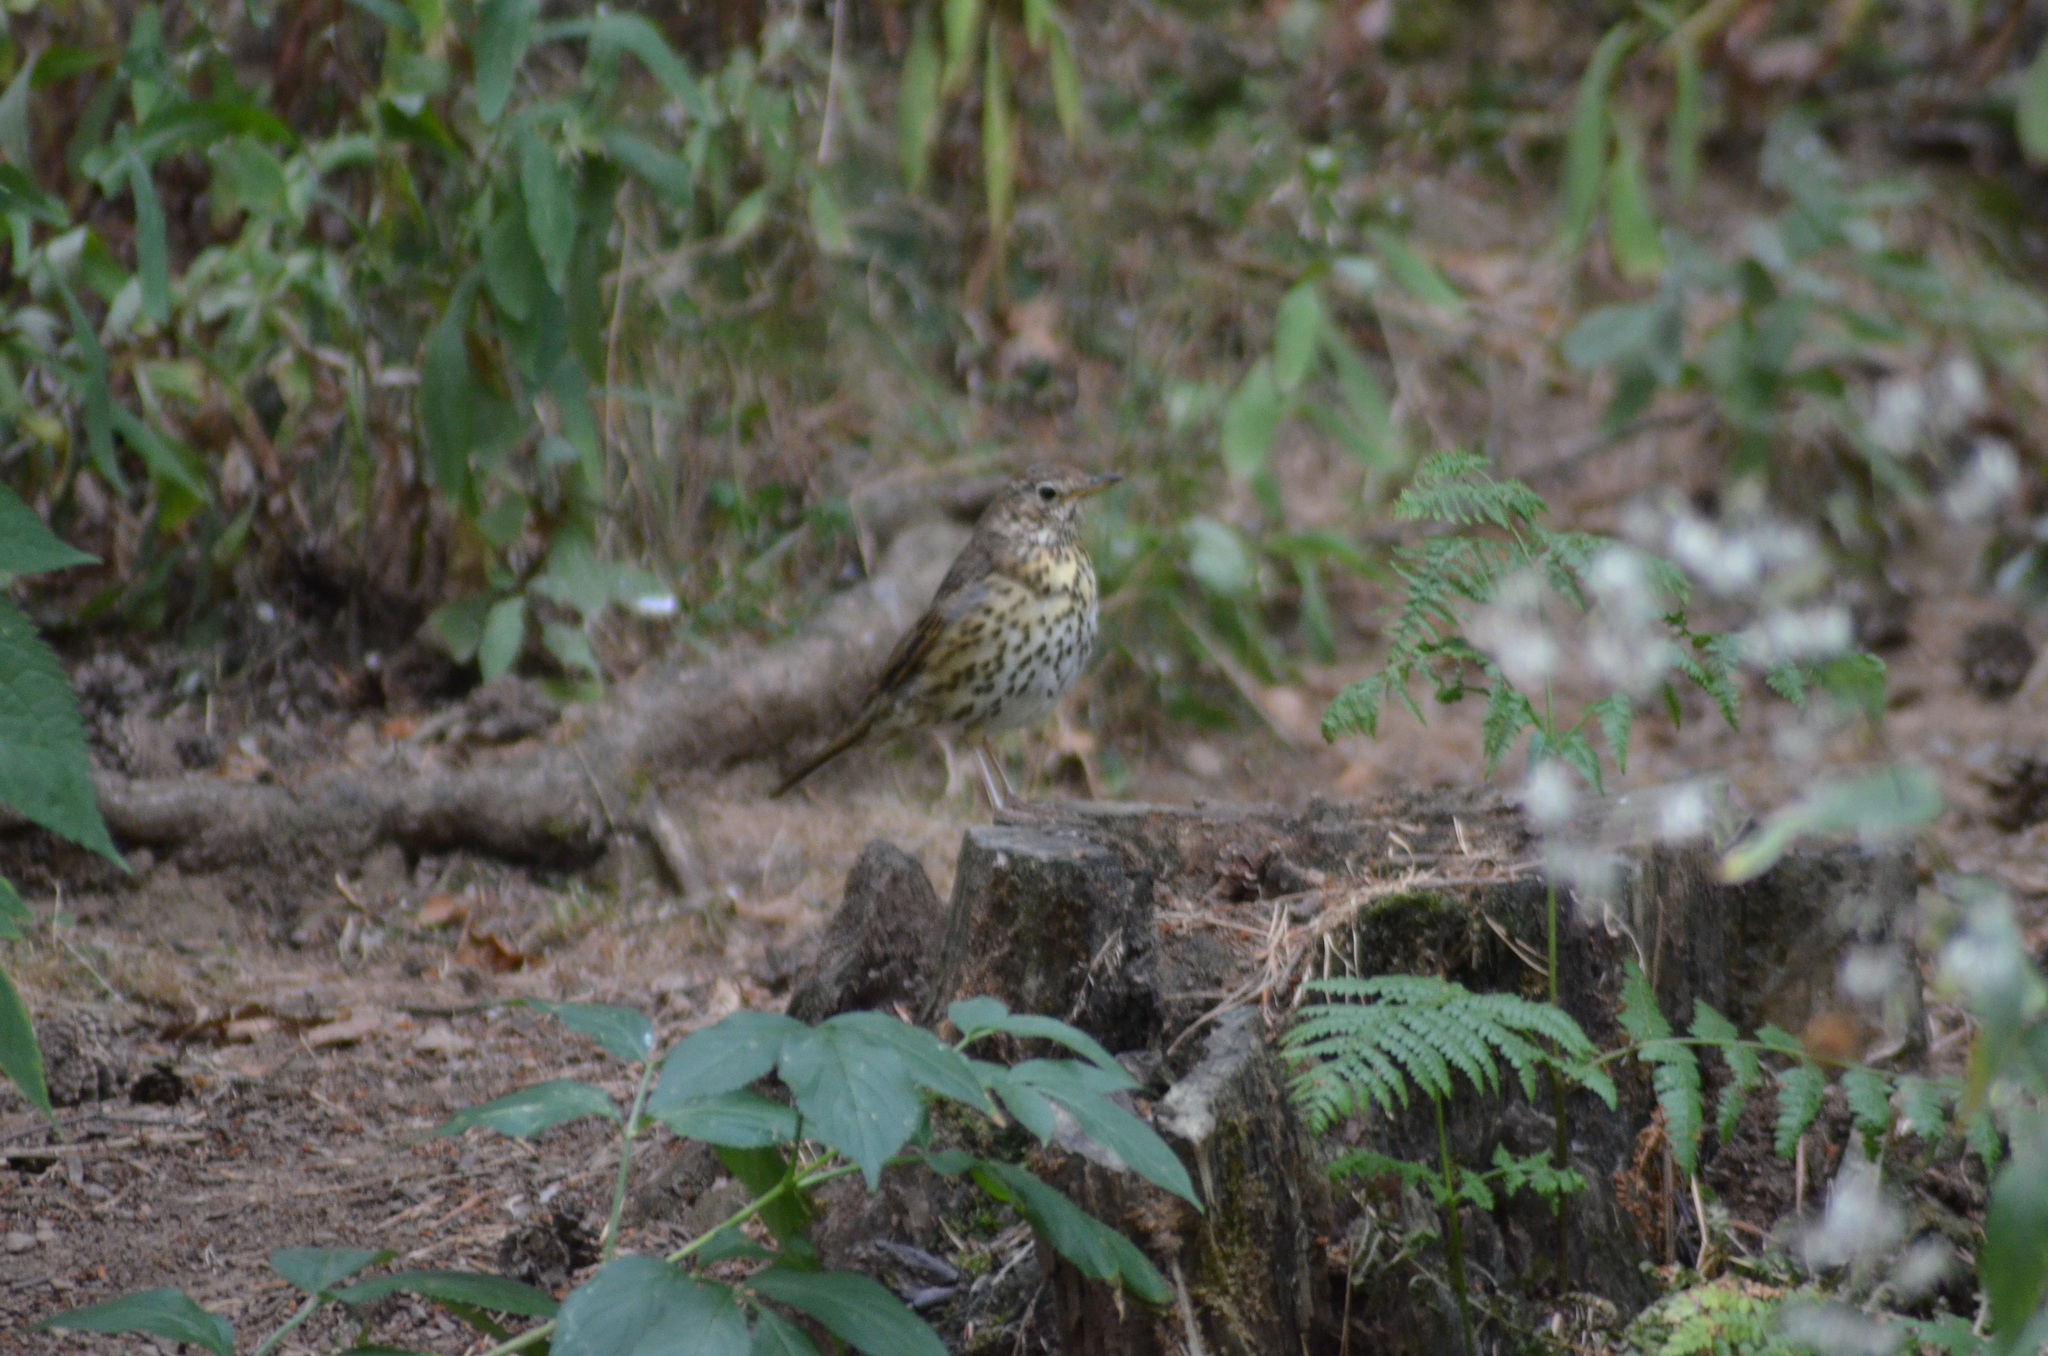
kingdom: Animalia
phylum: Chordata
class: Aves
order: Passeriformes
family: Turdidae
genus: Turdus
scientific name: Turdus philomelos
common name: Song thrush
